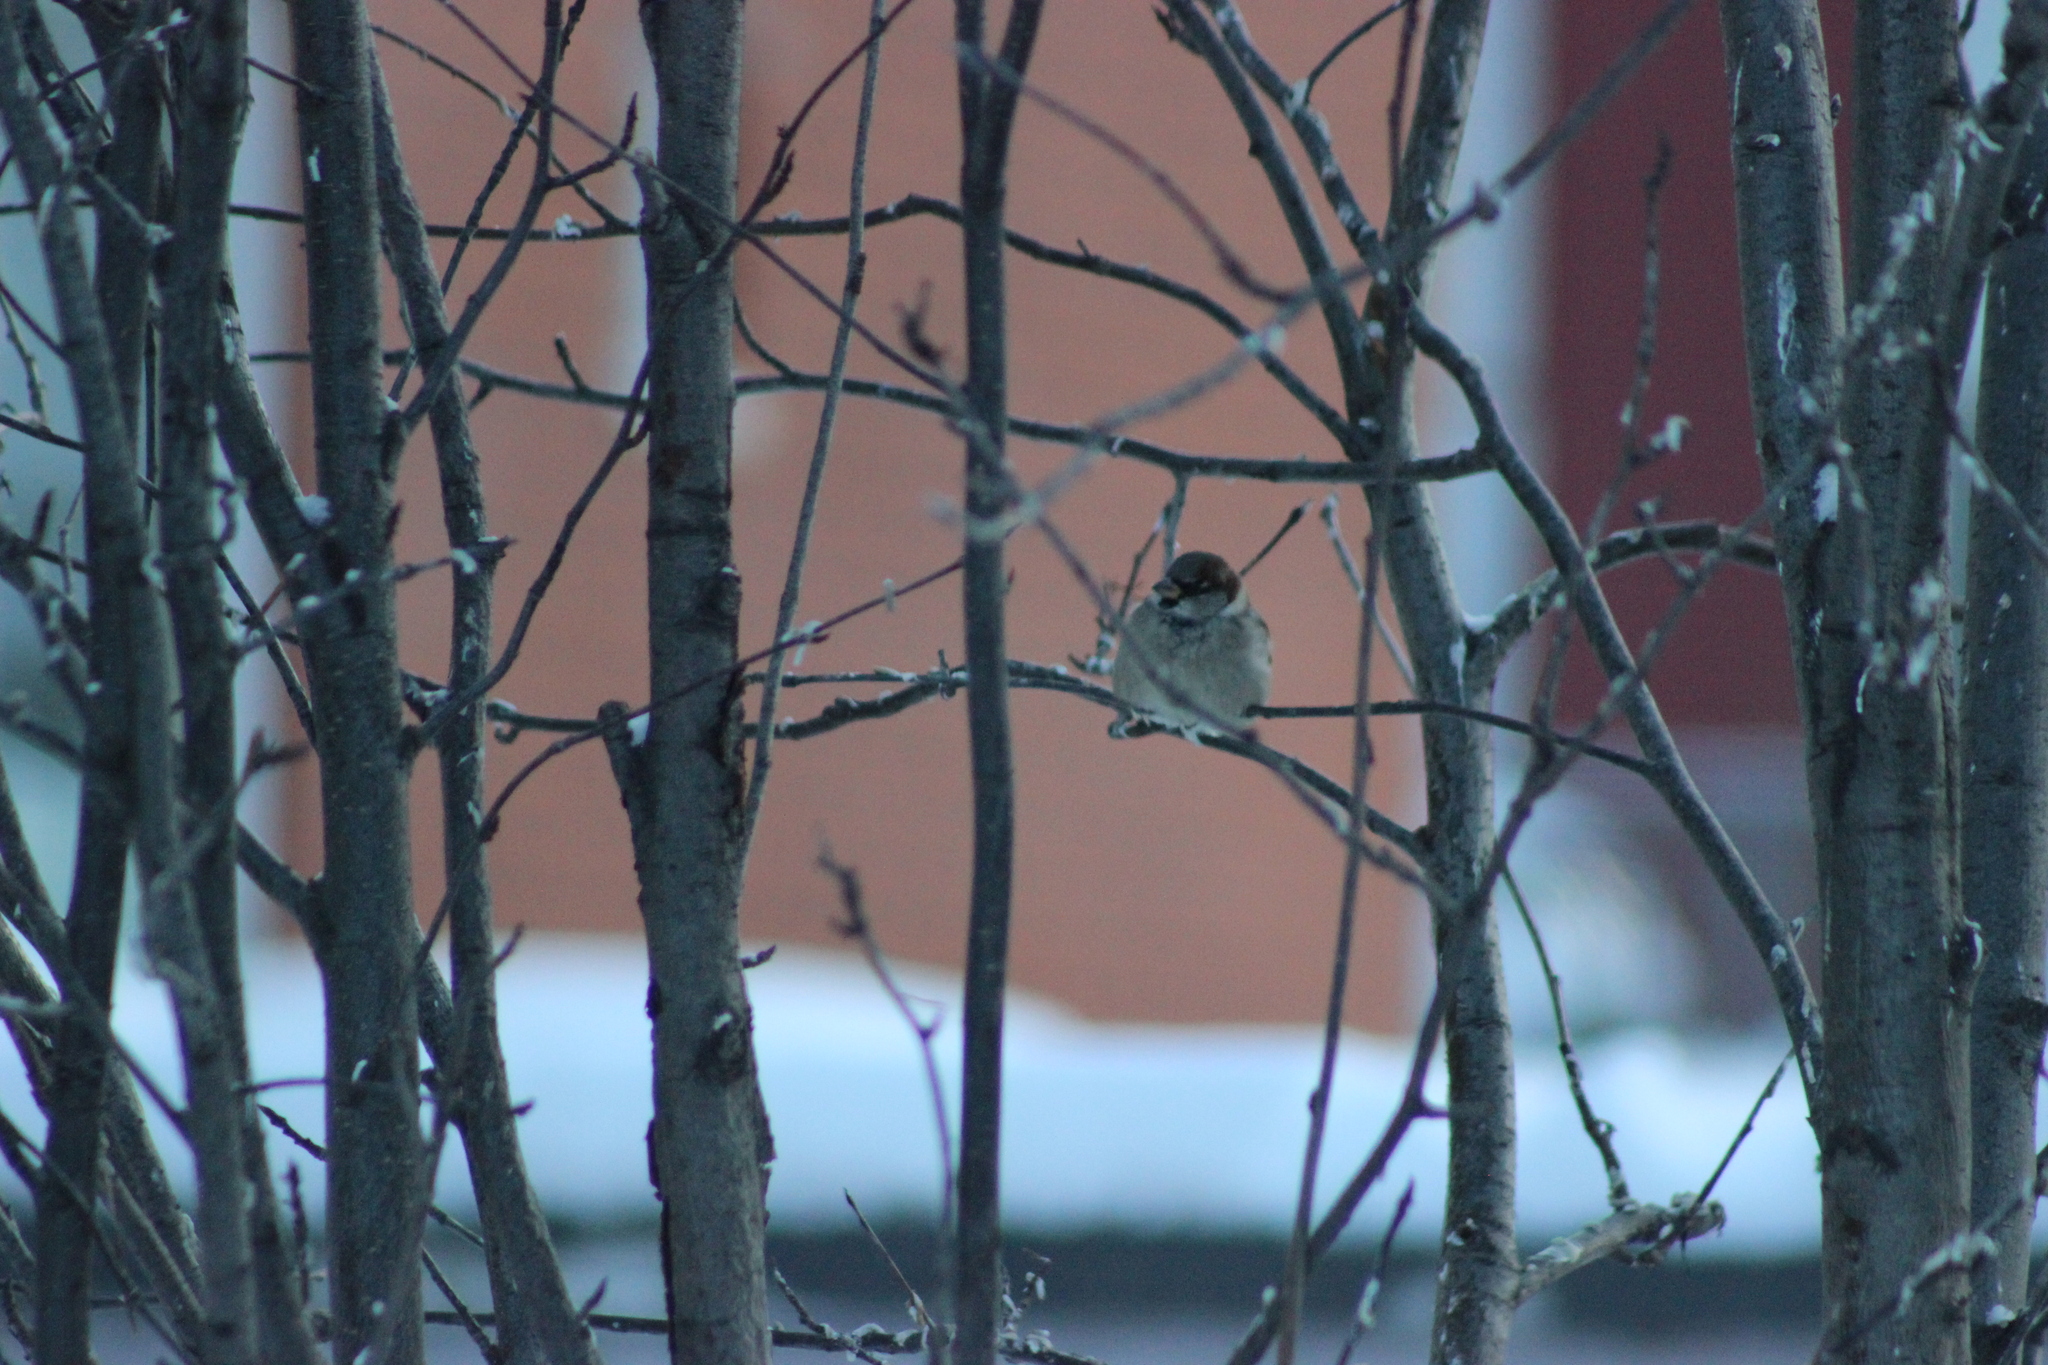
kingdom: Animalia
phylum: Chordata
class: Aves
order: Passeriformes
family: Passeridae
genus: Passer
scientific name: Passer domesticus
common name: House sparrow
